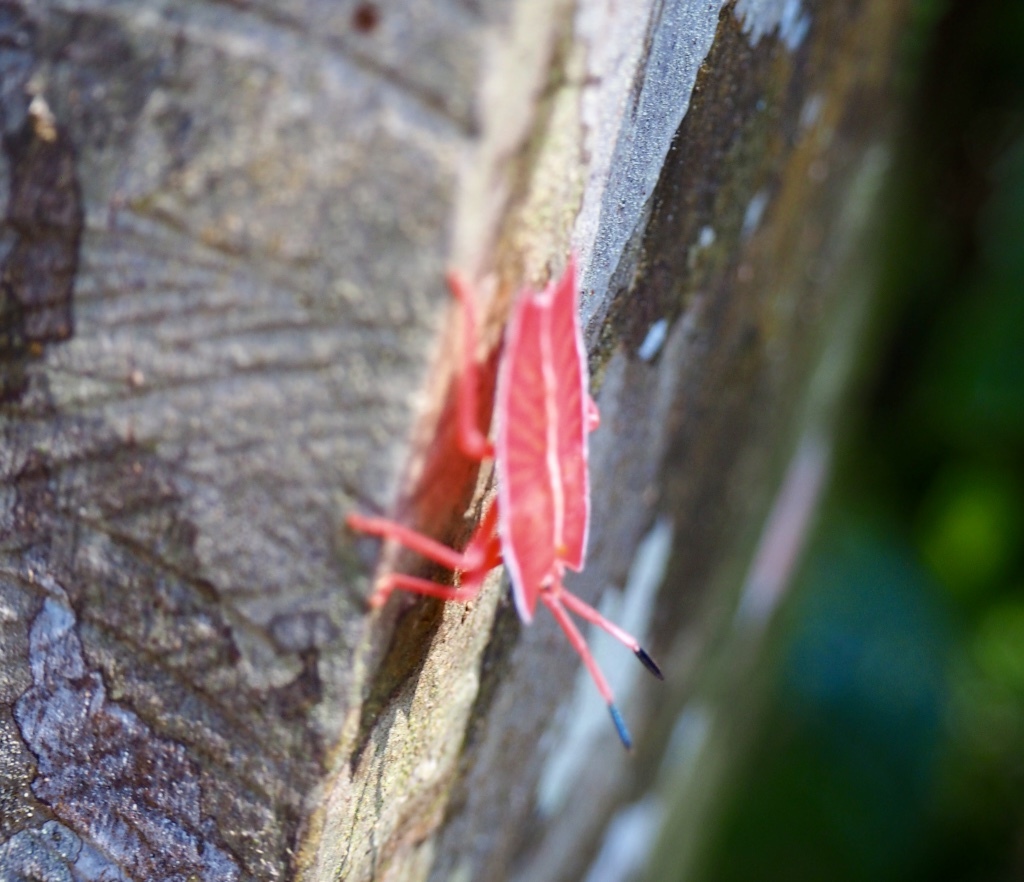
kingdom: Animalia
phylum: Arthropoda
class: Insecta
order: Hemiptera
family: Tessaratomidae
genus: Pycanum
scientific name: Pycanum alternatum
